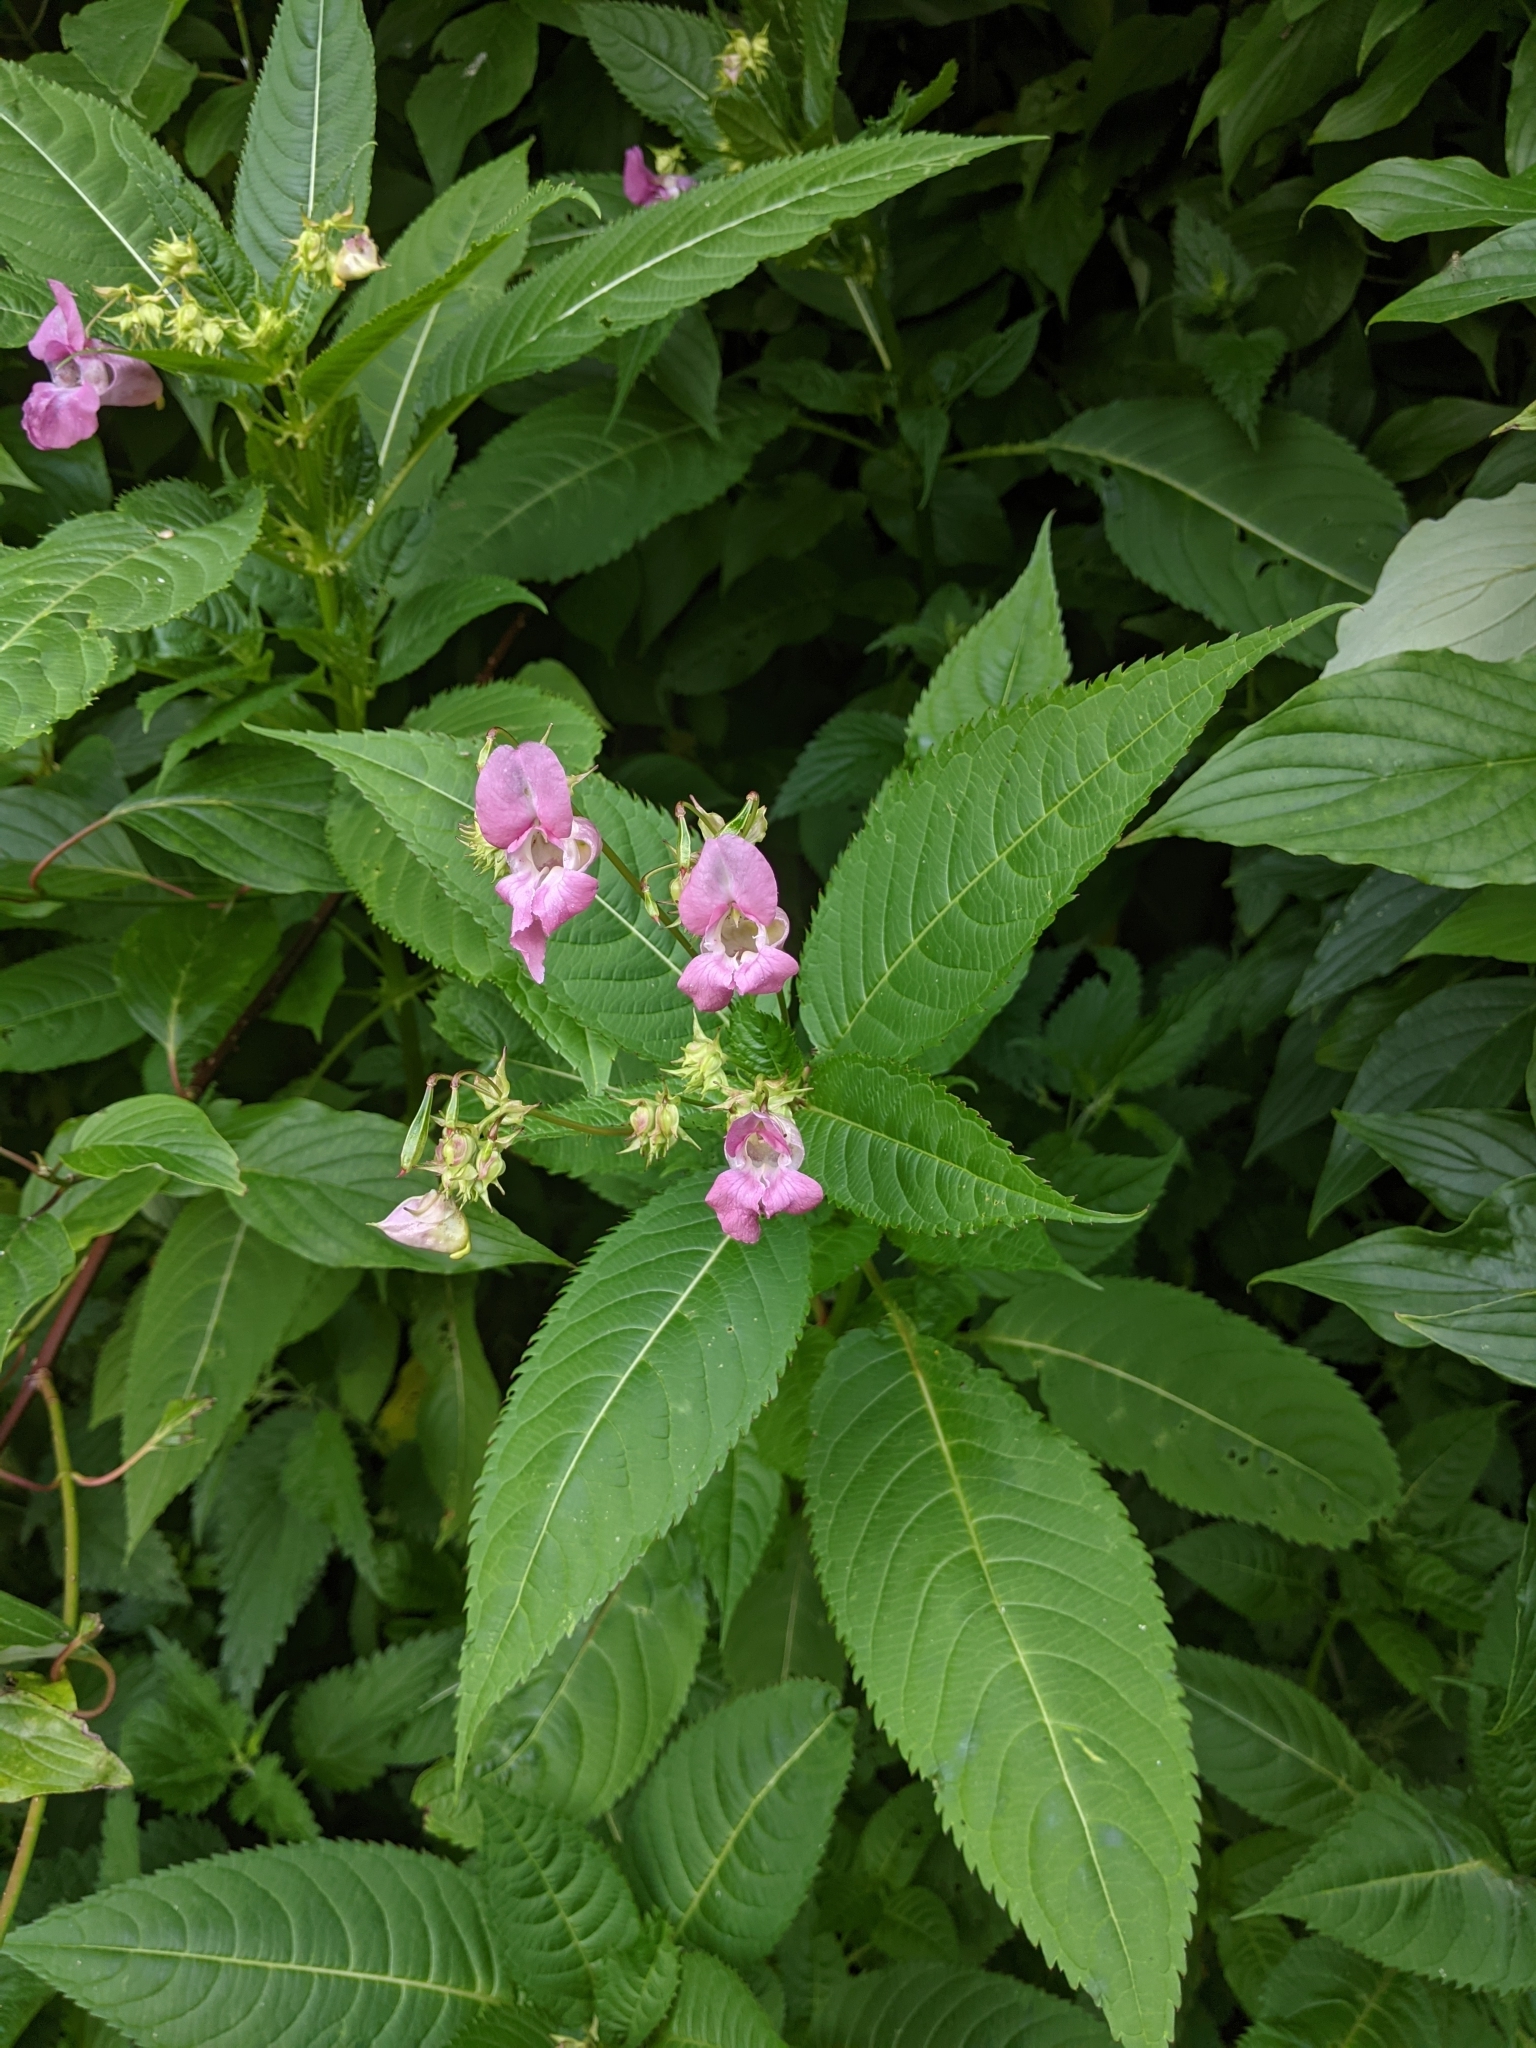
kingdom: Plantae
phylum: Tracheophyta
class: Magnoliopsida
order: Ericales
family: Balsaminaceae
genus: Impatiens
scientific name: Impatiens glandulifera
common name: Himalayan balsam
